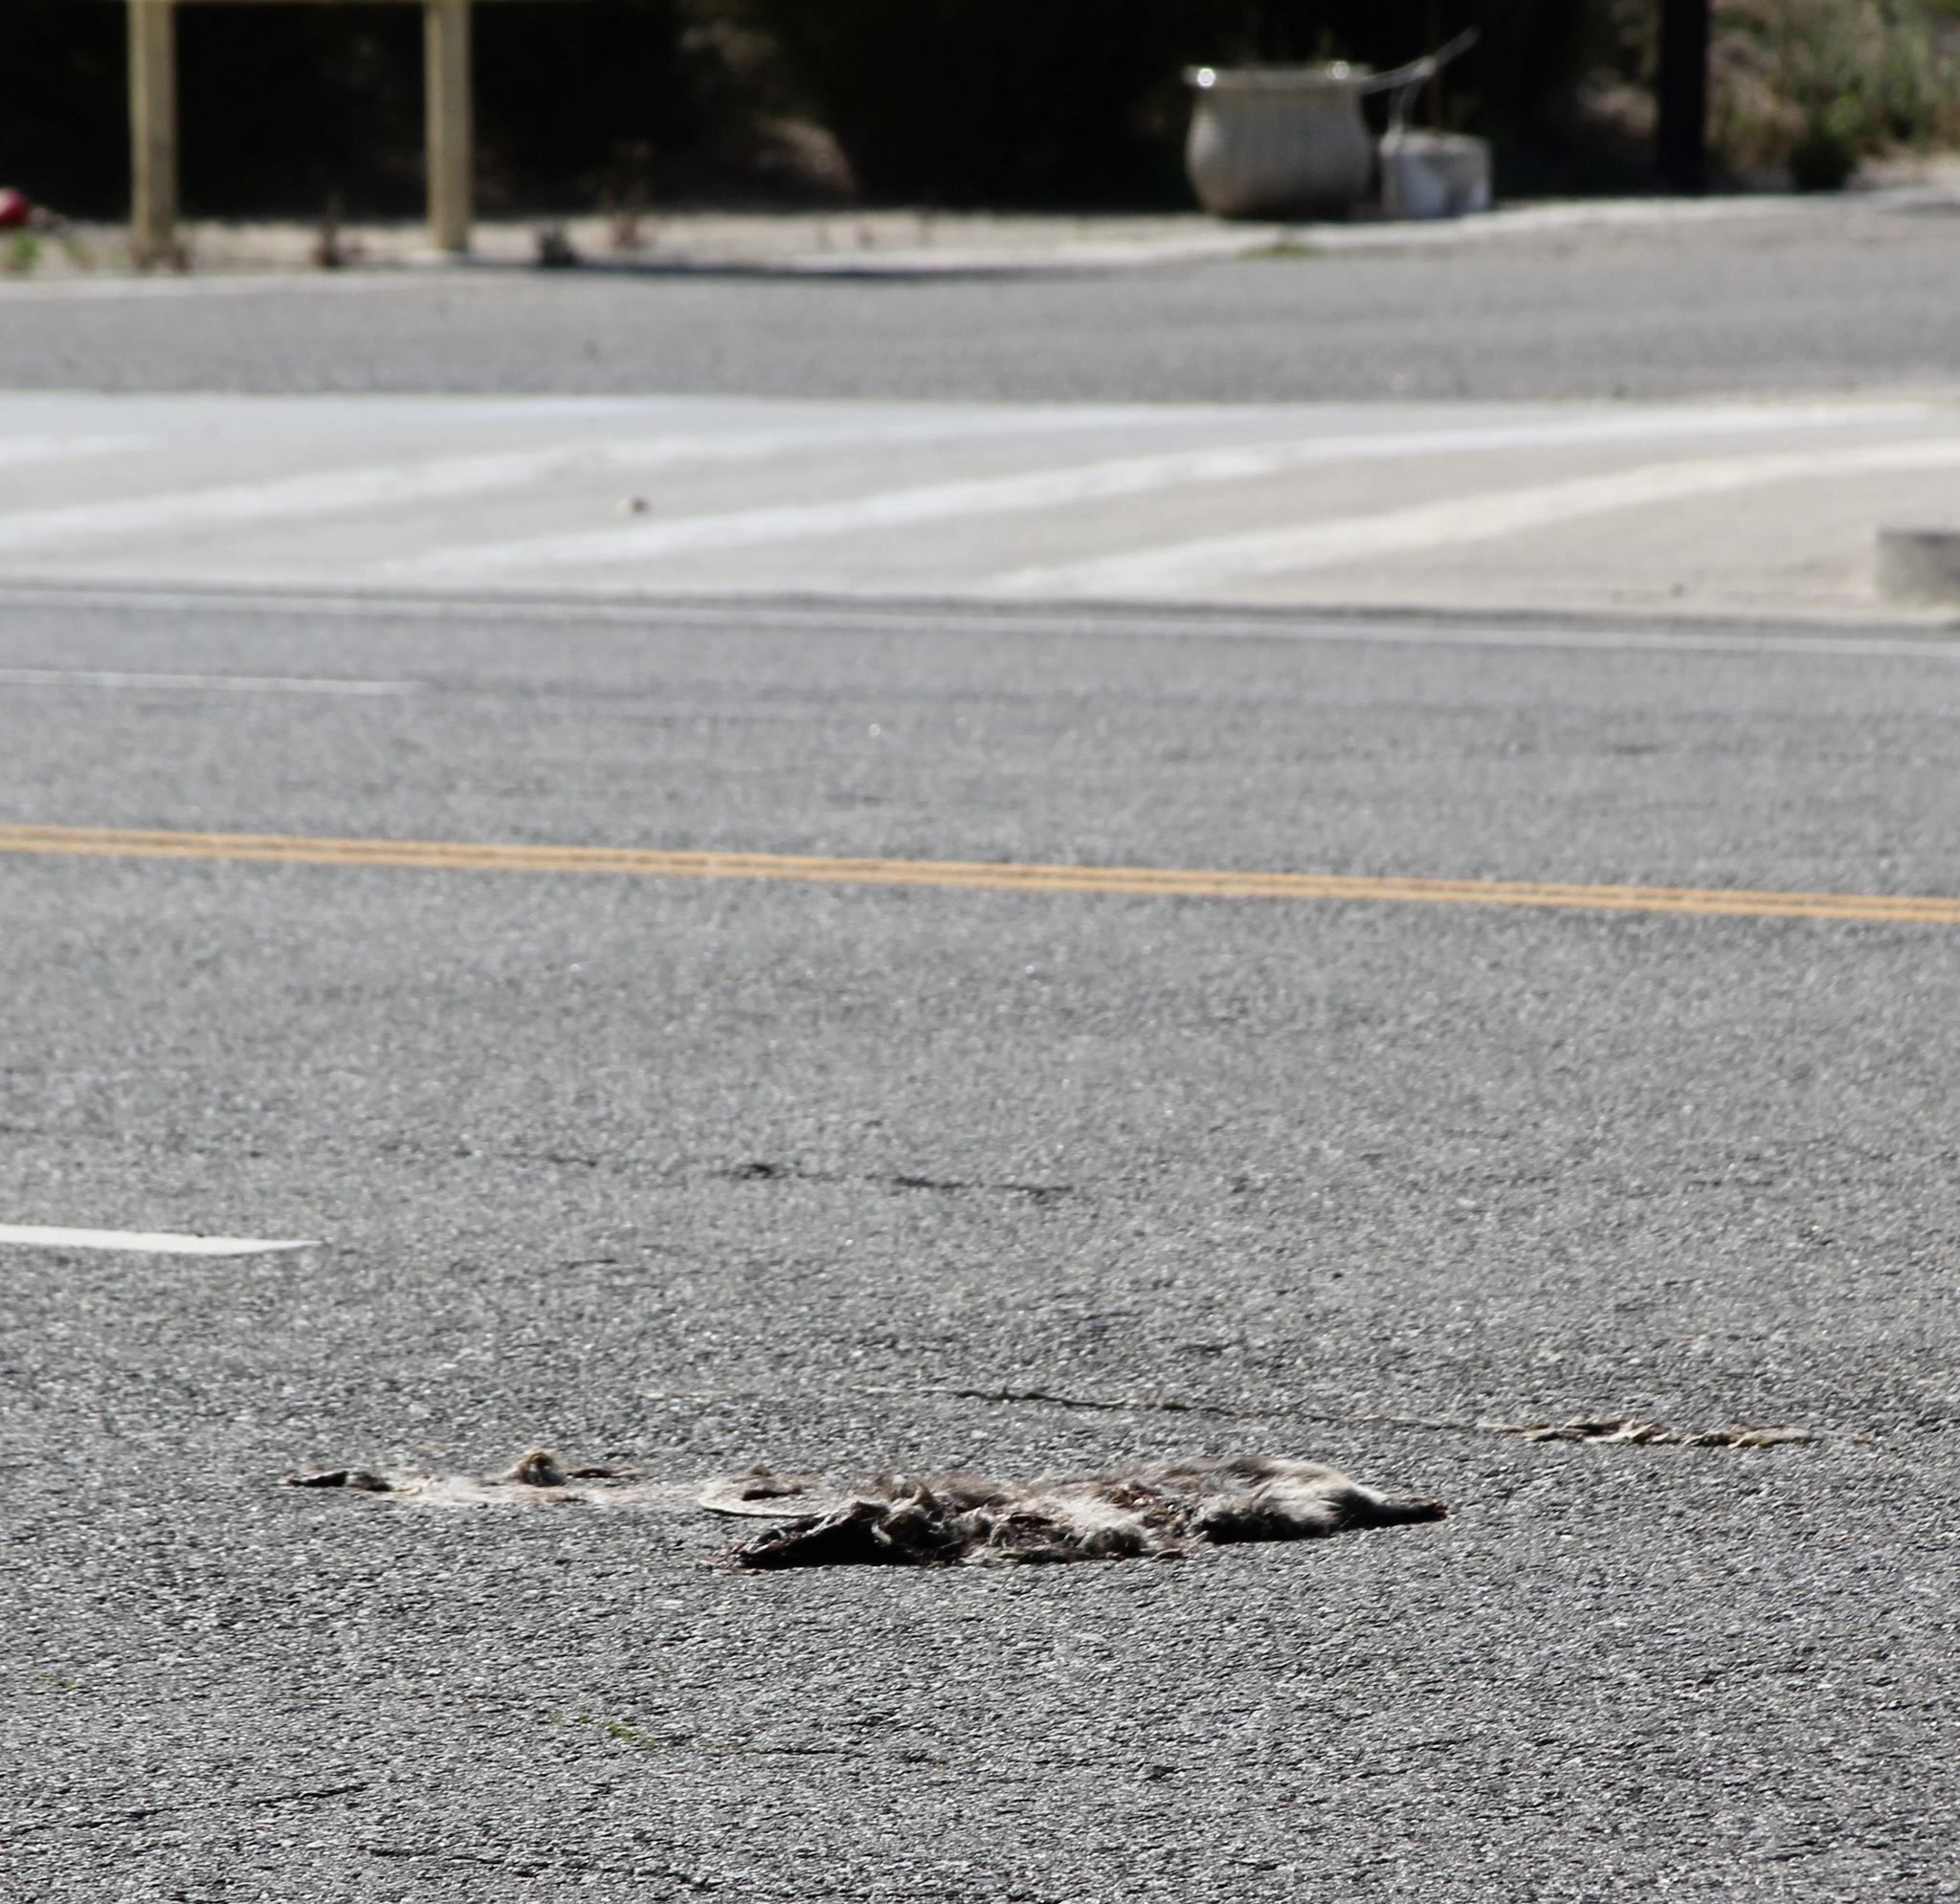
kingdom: Animalia
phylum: Chordata
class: Mammalia
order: Didelphimorphia
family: Didelphidae
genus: Didelphis
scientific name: Didelphis virginiana
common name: Virginia opossum
